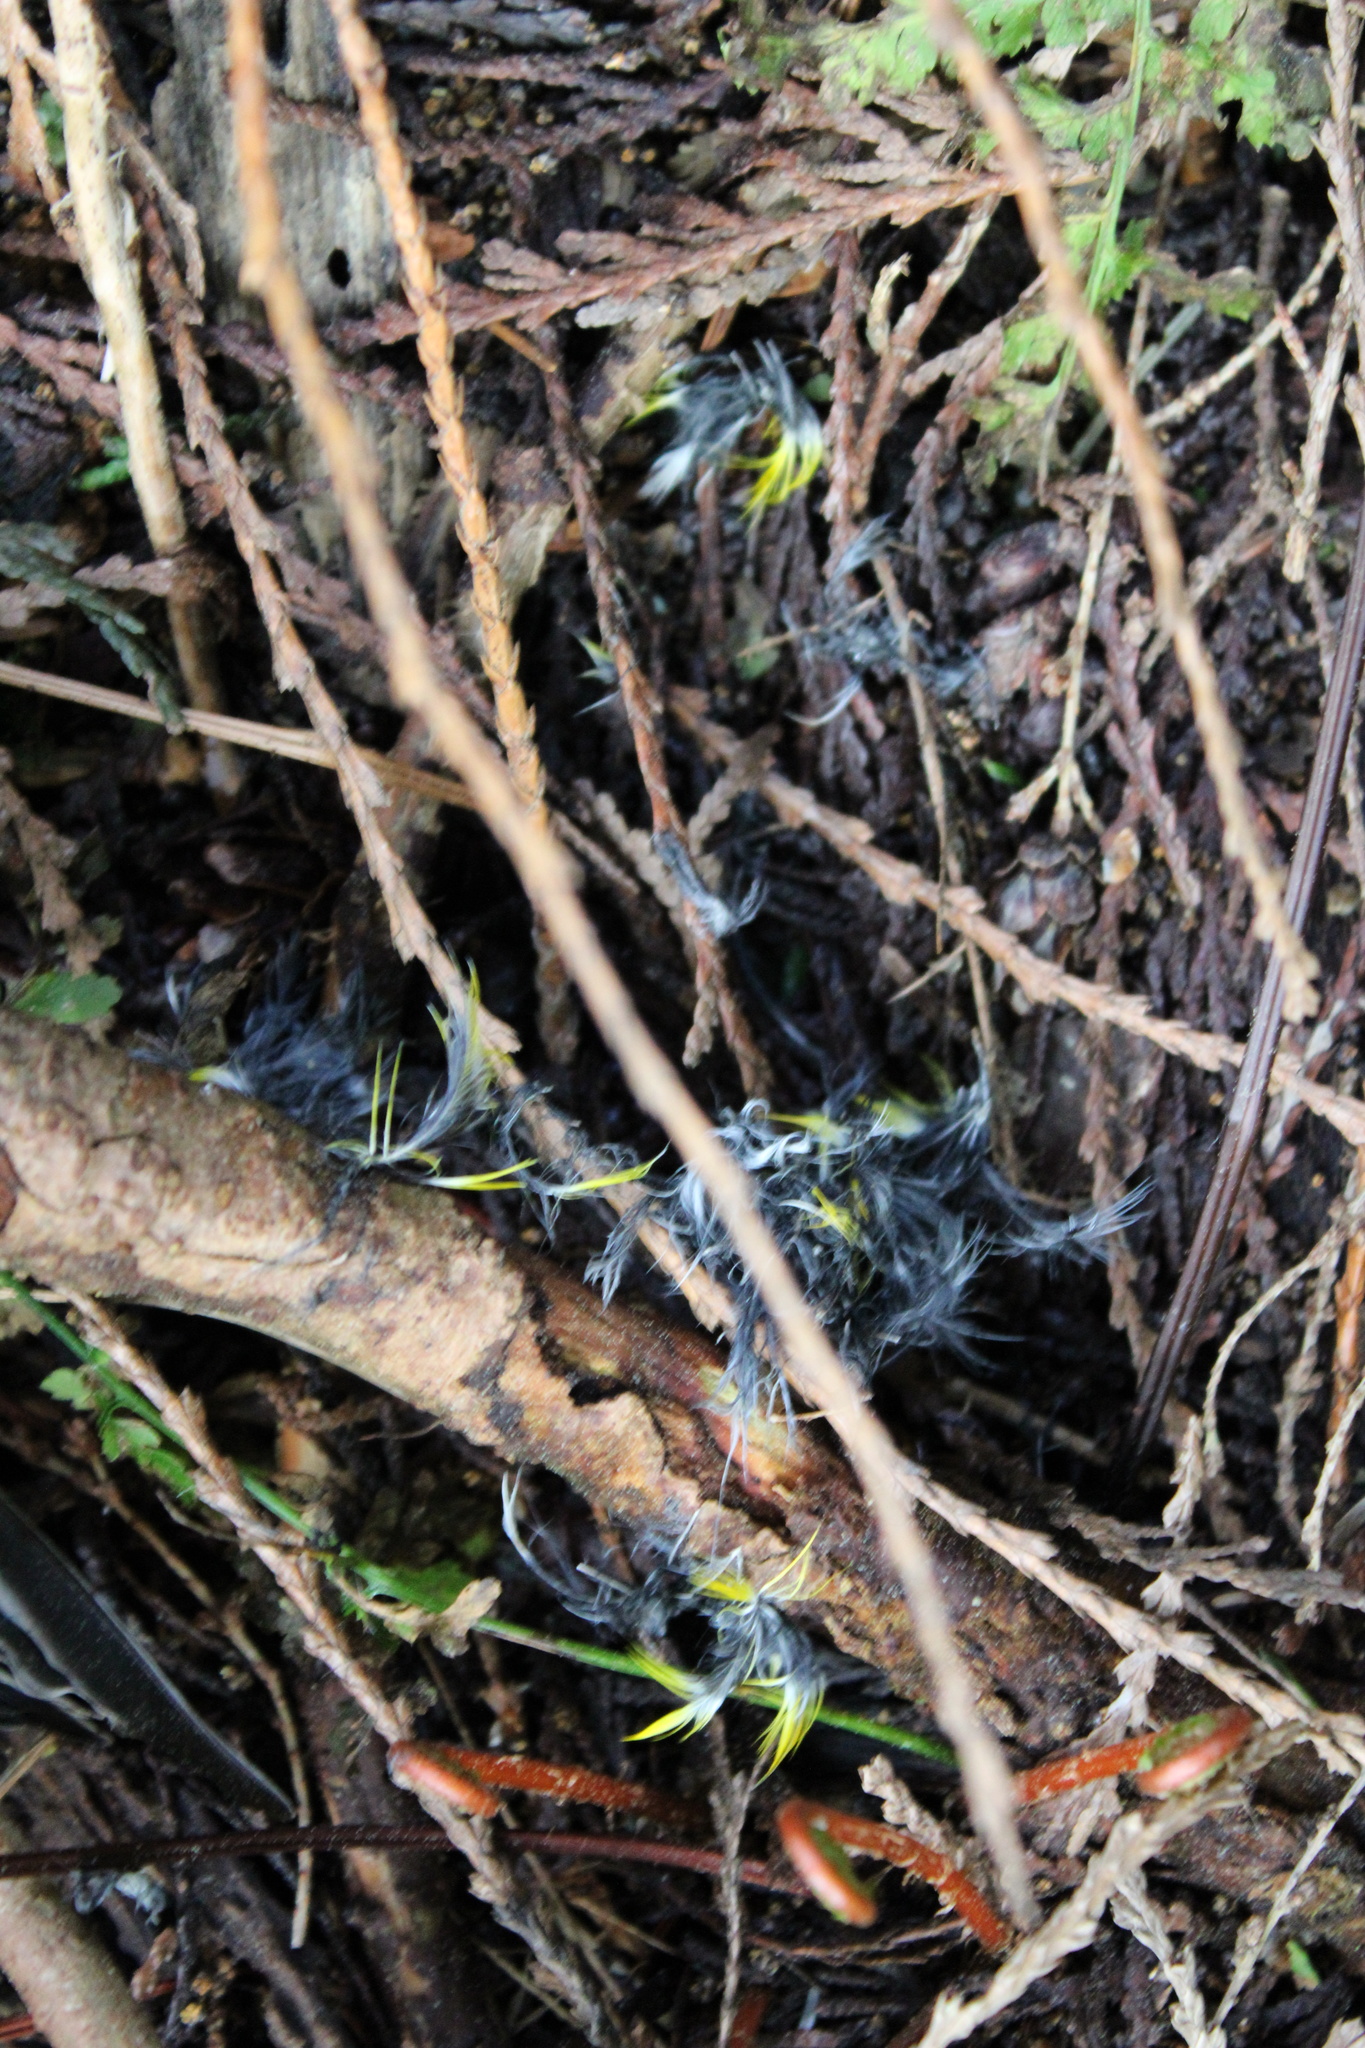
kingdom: Animalia
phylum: Chordata
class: Aves
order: Passeriformes
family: Parulidae
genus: Setophaga
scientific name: Setophaga coronata
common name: Myrtle warbler
